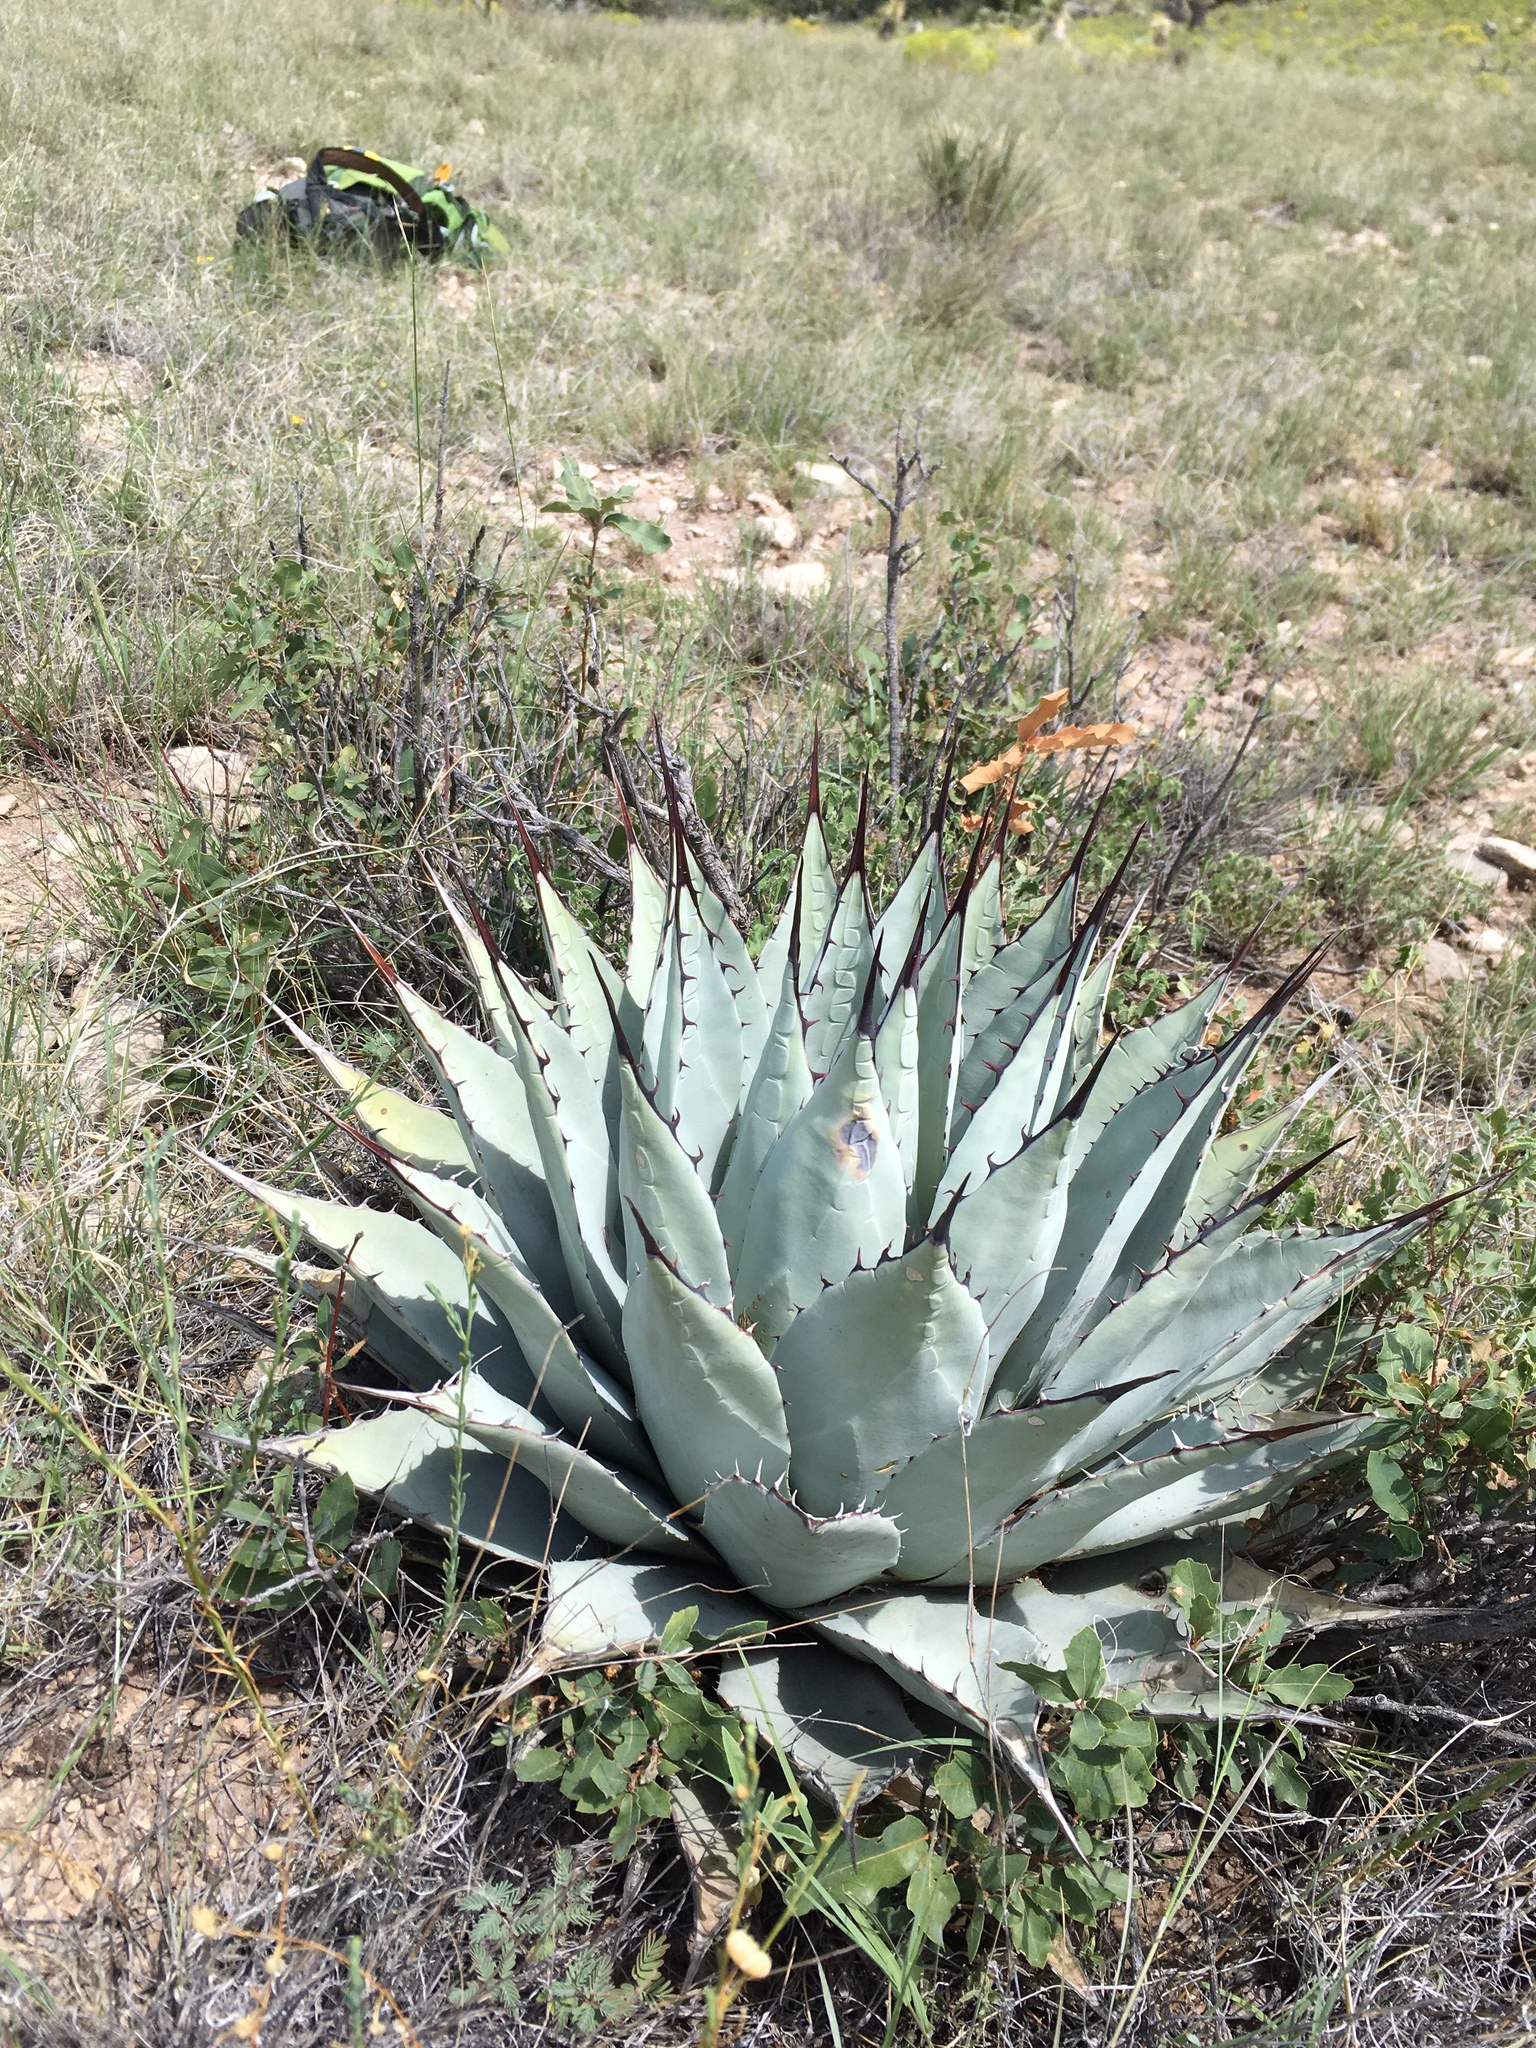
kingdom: Plantae
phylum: Tracheophyta
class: Liliopsida
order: Asparagales
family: Asparagaceae
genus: Agave
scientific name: Agave parryi
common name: Parry's agave
